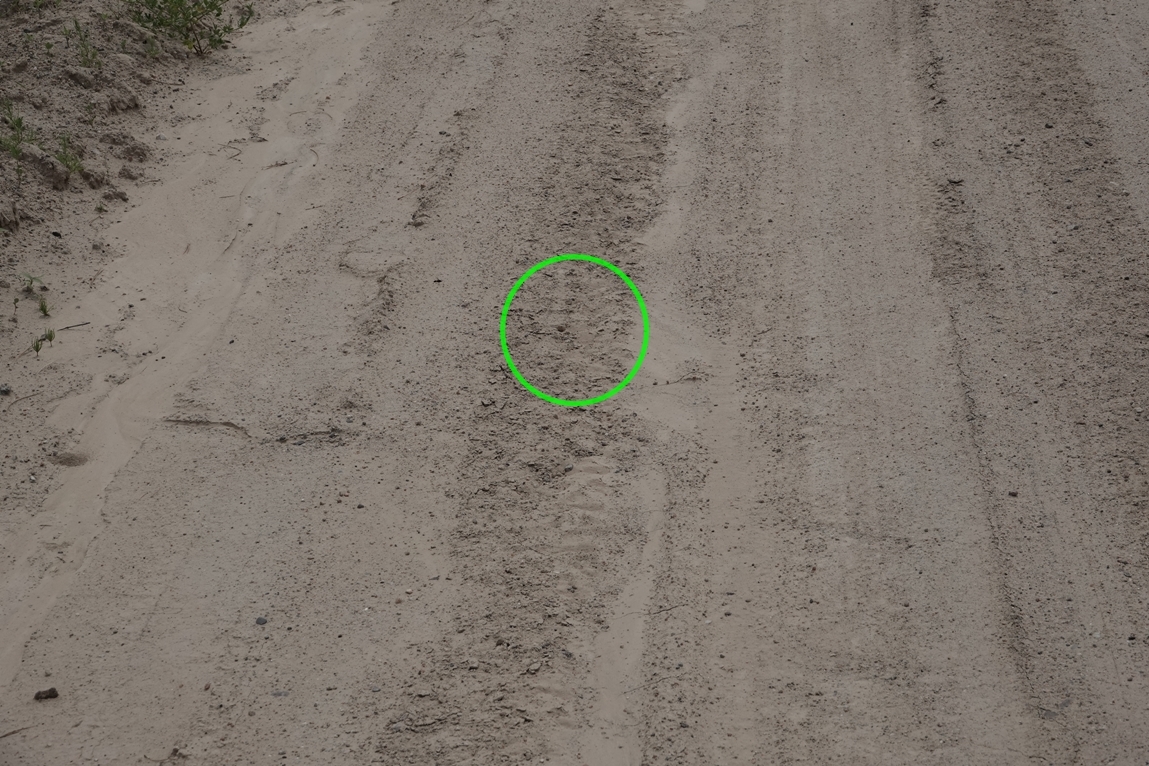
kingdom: Animalia
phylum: Arthropoda
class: Insecta
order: Hymenoptera
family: Crabronidae
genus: Cerceris
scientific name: Cerceris fumipennis
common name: Smokey-winged beetle bandit wasp
